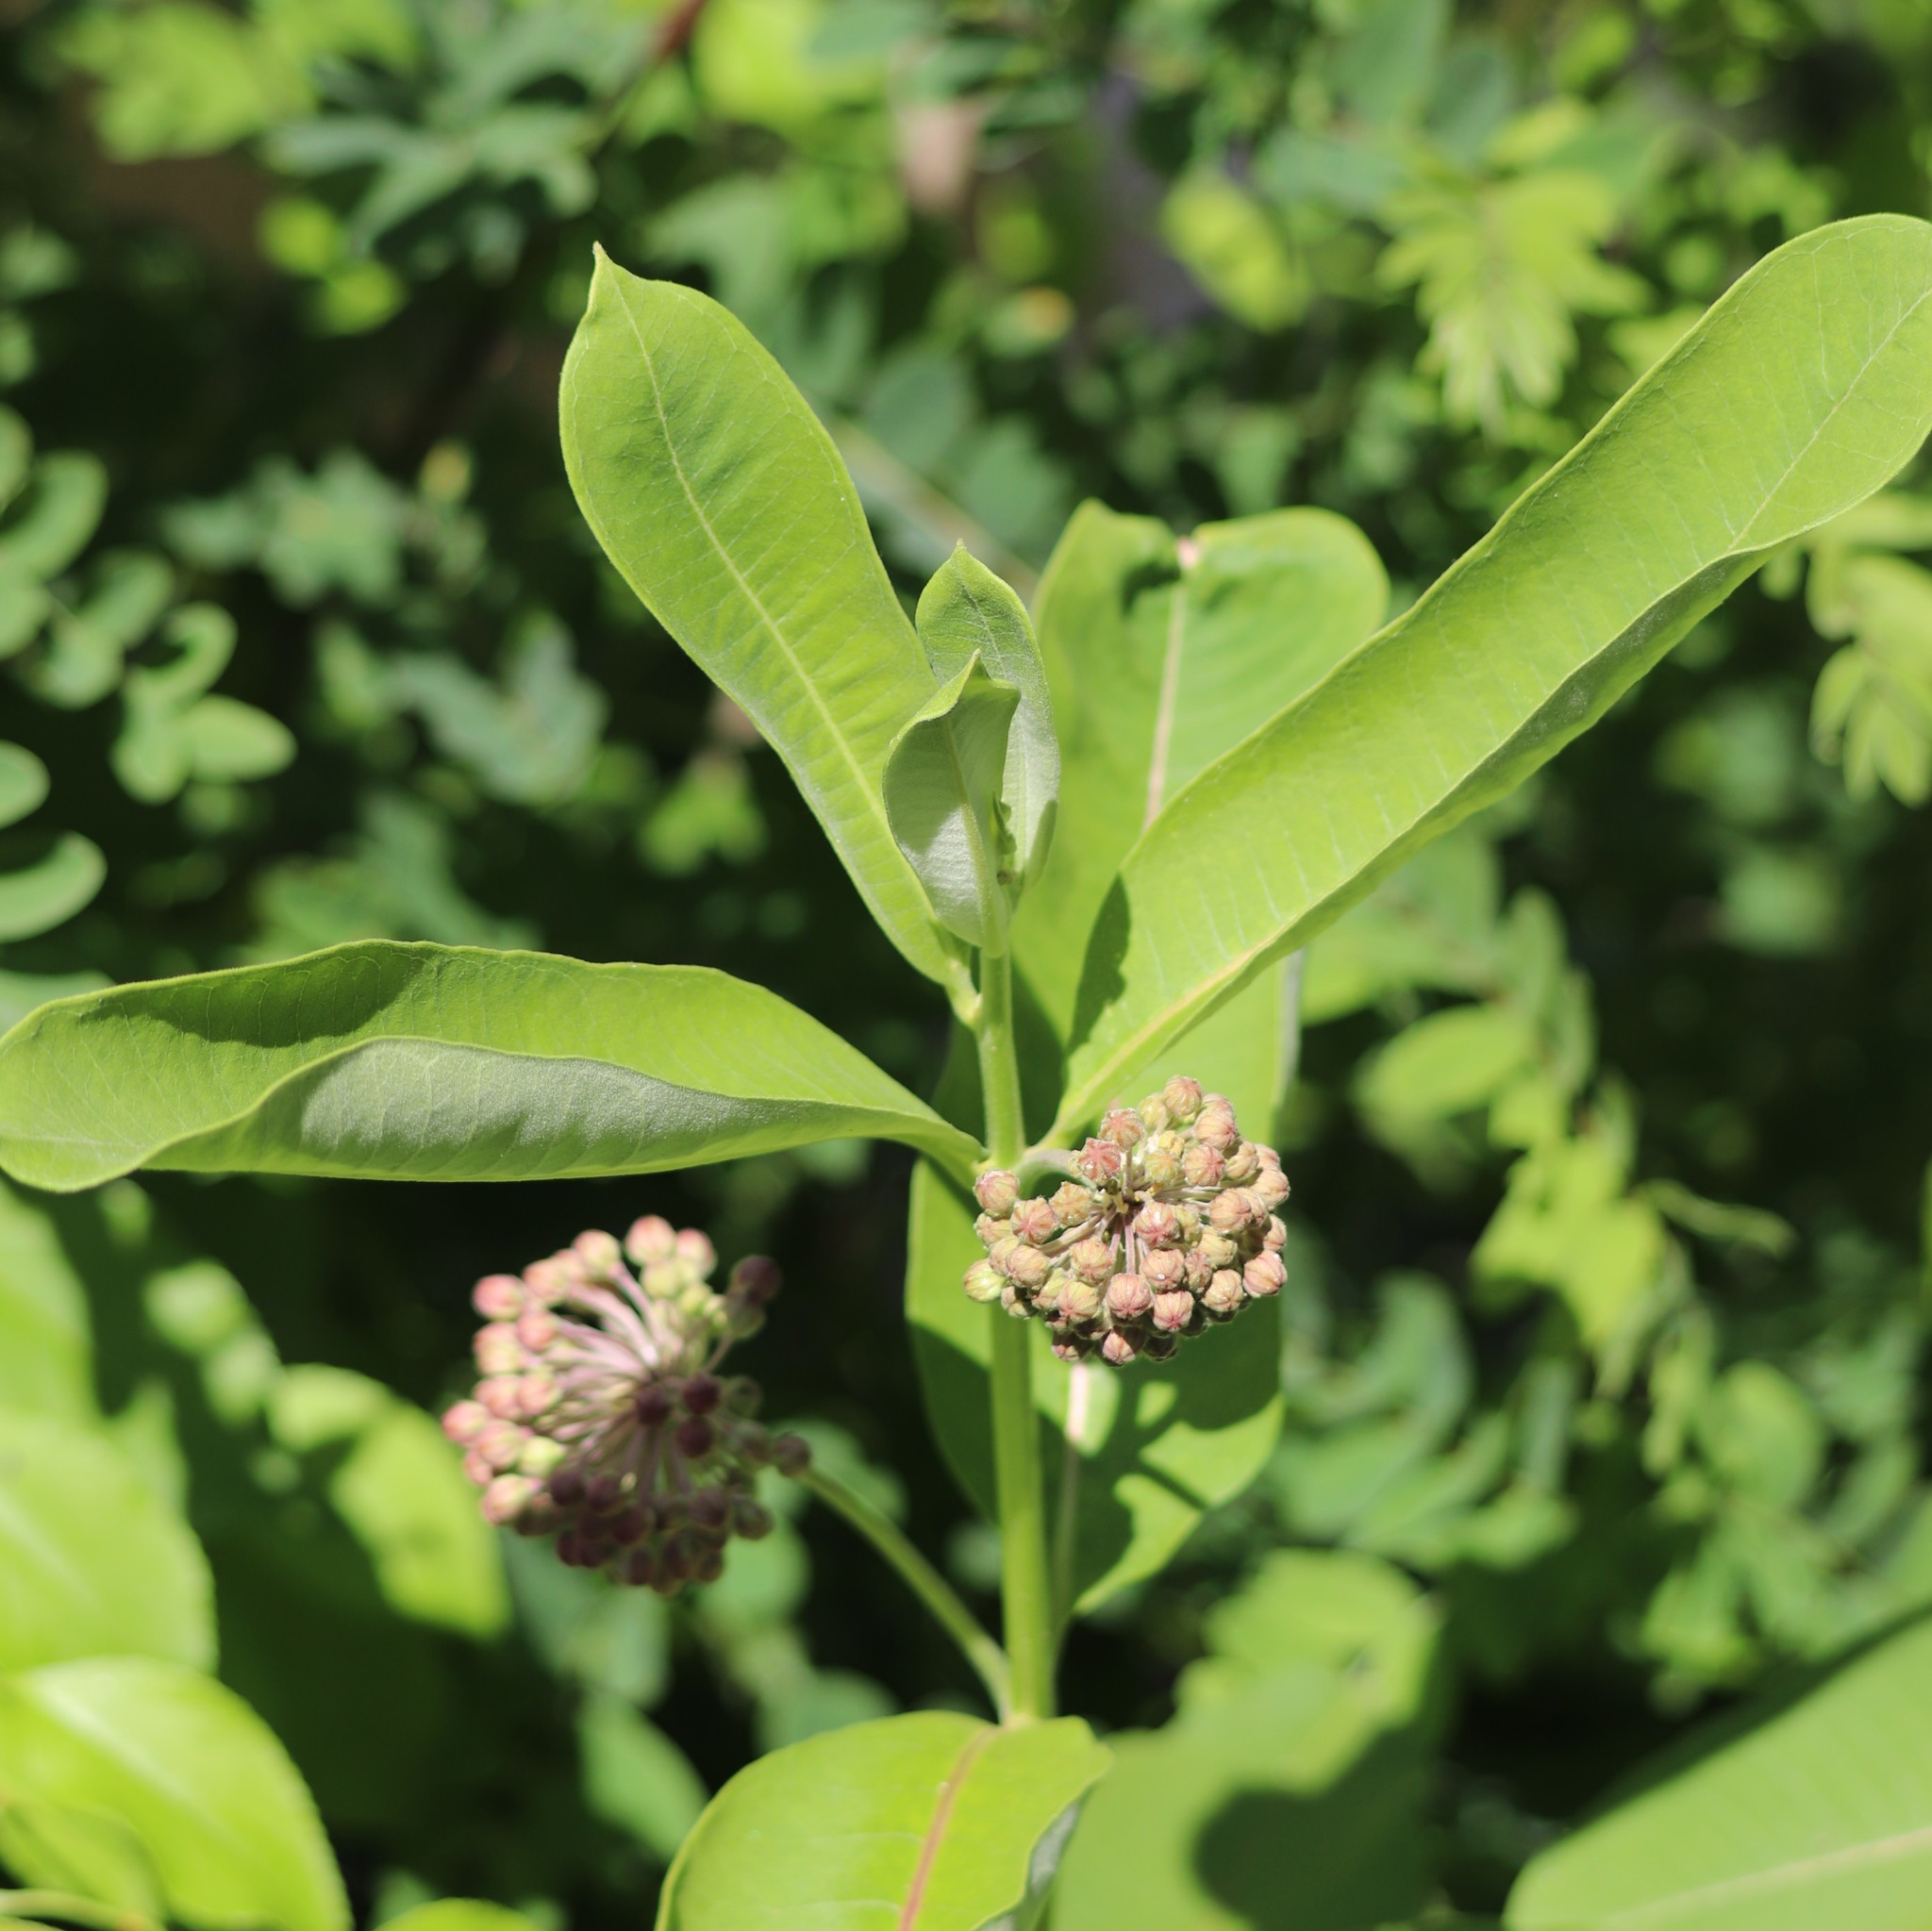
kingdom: Plantae
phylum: Tracheophyta
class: Magnoliopsida
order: Gentianales
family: Apocynaceae
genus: Asclepias
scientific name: Asclepias syriaca
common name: Common milkweed
